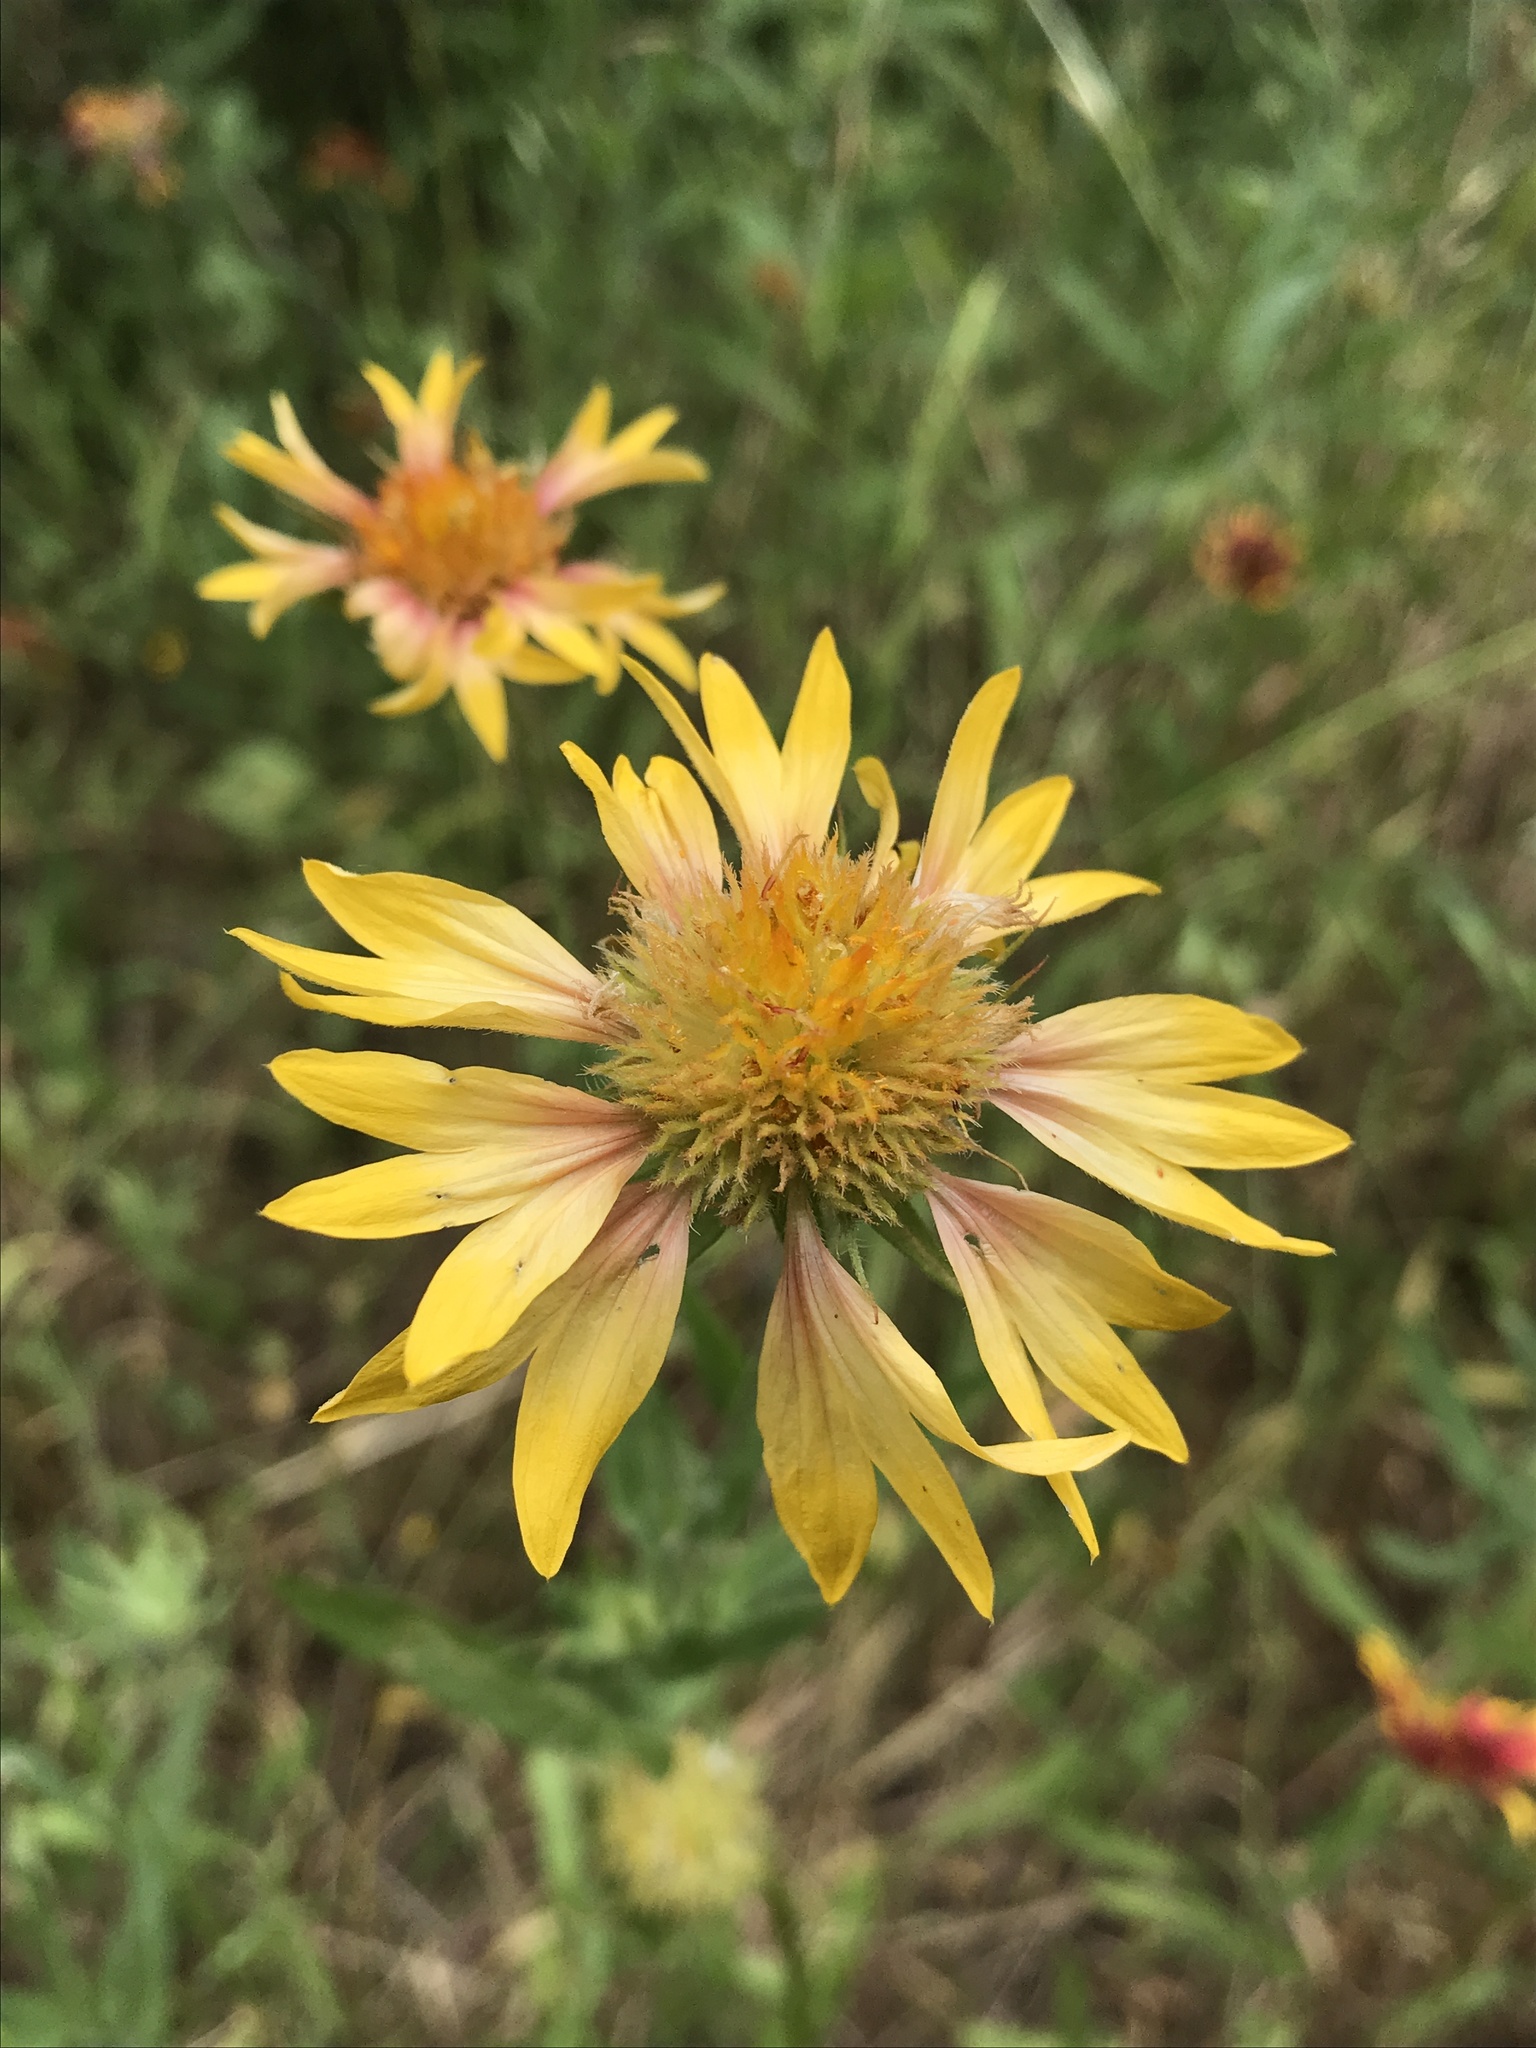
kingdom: Plantae
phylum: Tracheophyta
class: Magnoliopsida
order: Asterales
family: Asteraceae
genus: Gaillardia
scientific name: Gaillardia pulchella
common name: Firewheel
